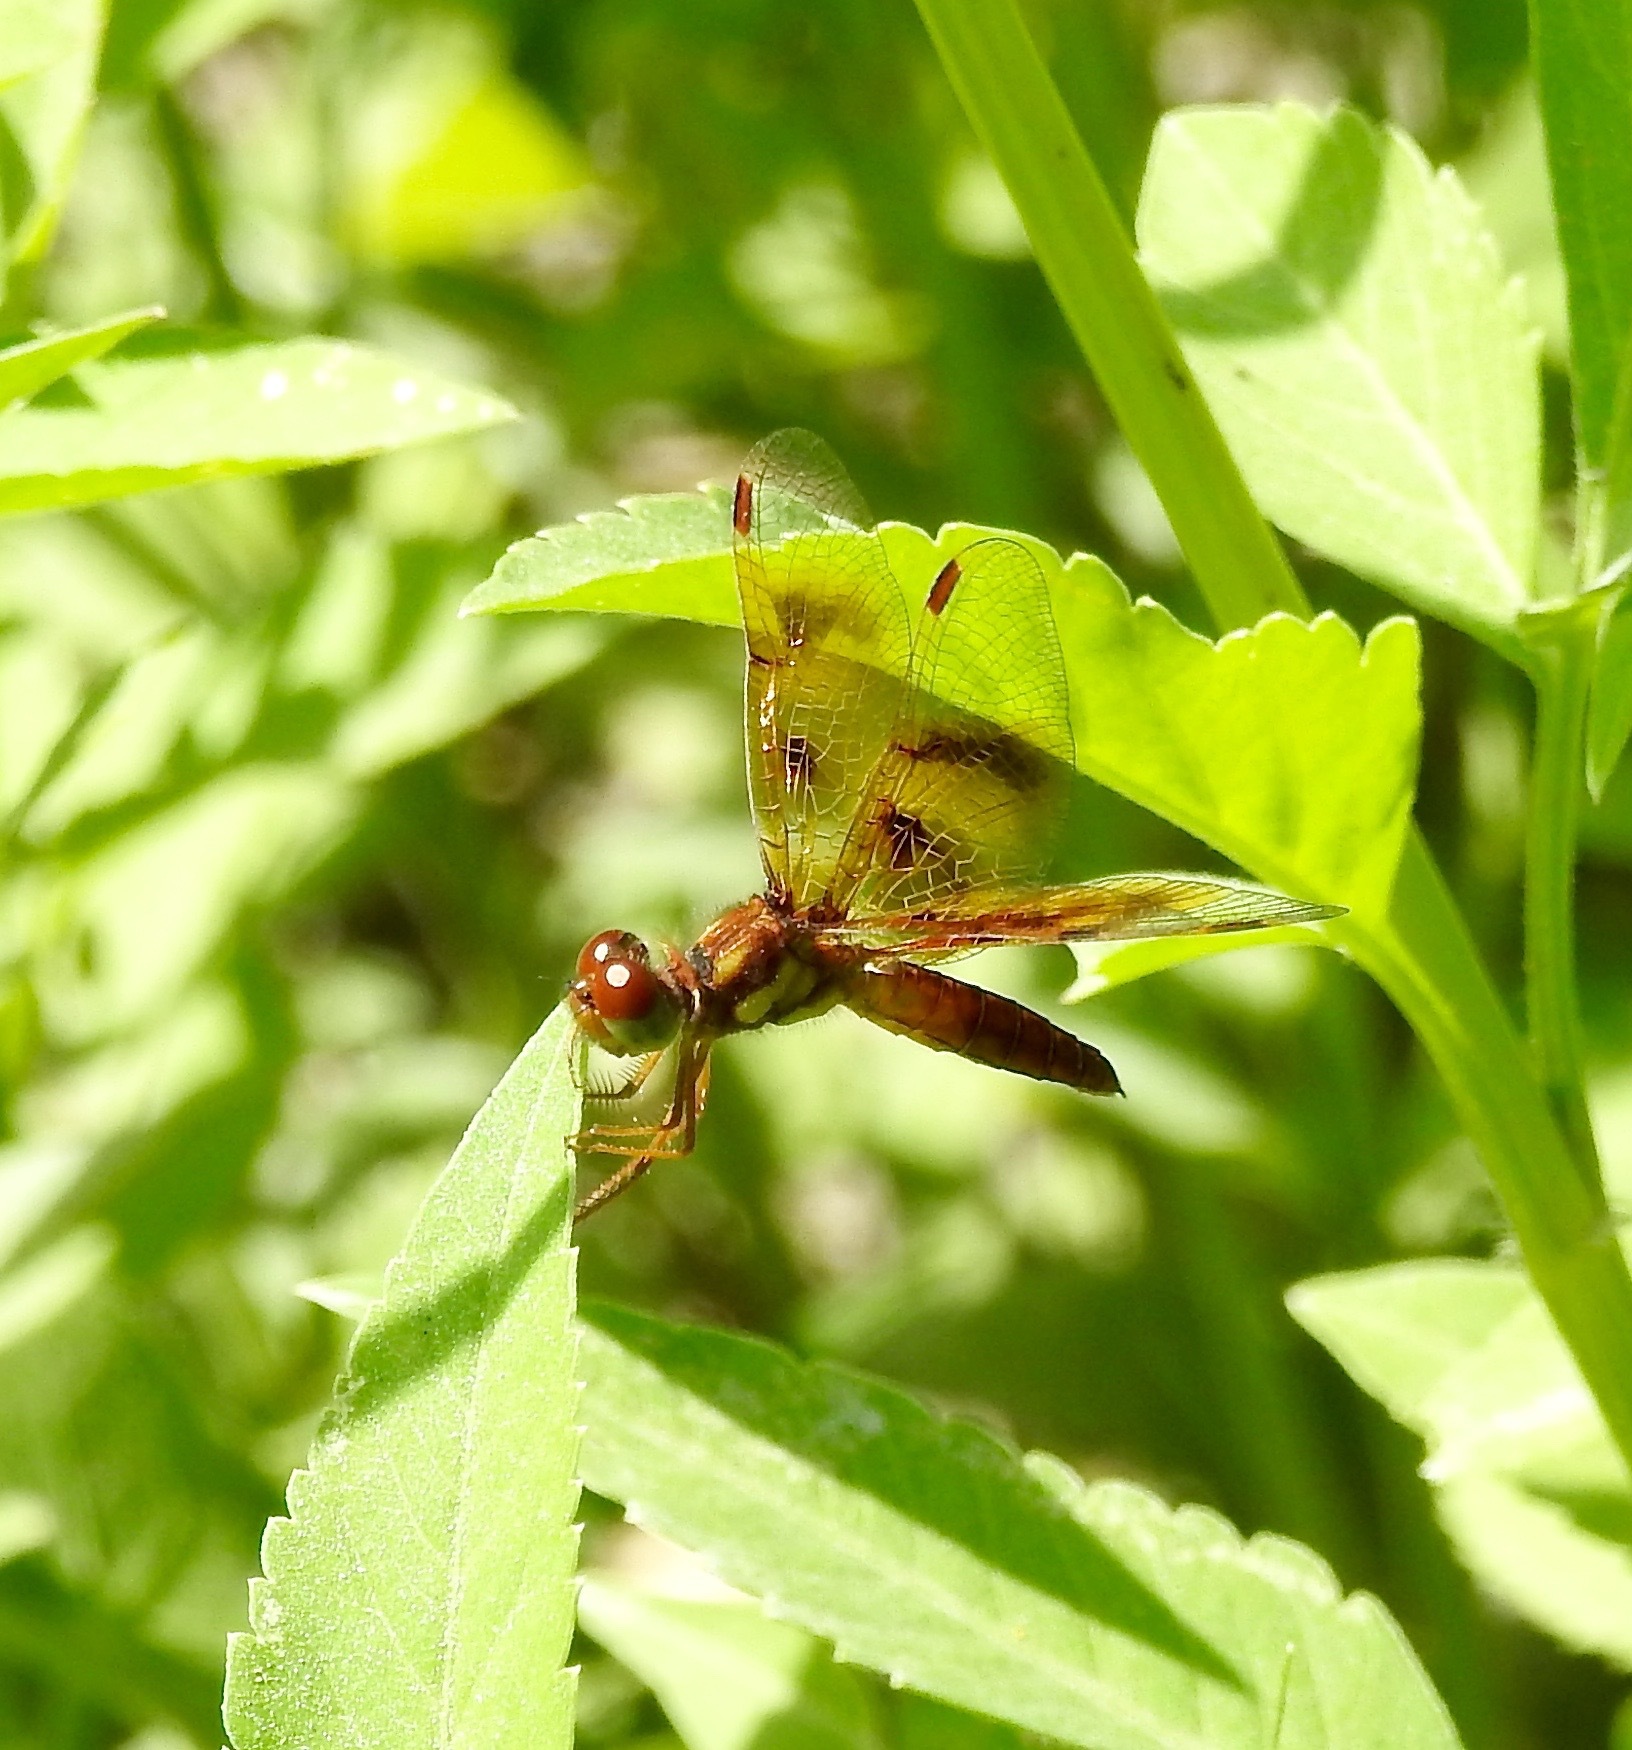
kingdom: Animalia
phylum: Arthropoda
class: Insecta
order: Odonata
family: Libellulidae
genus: Perithemis
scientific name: Perithemis tenera
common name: Eastern amberwing
